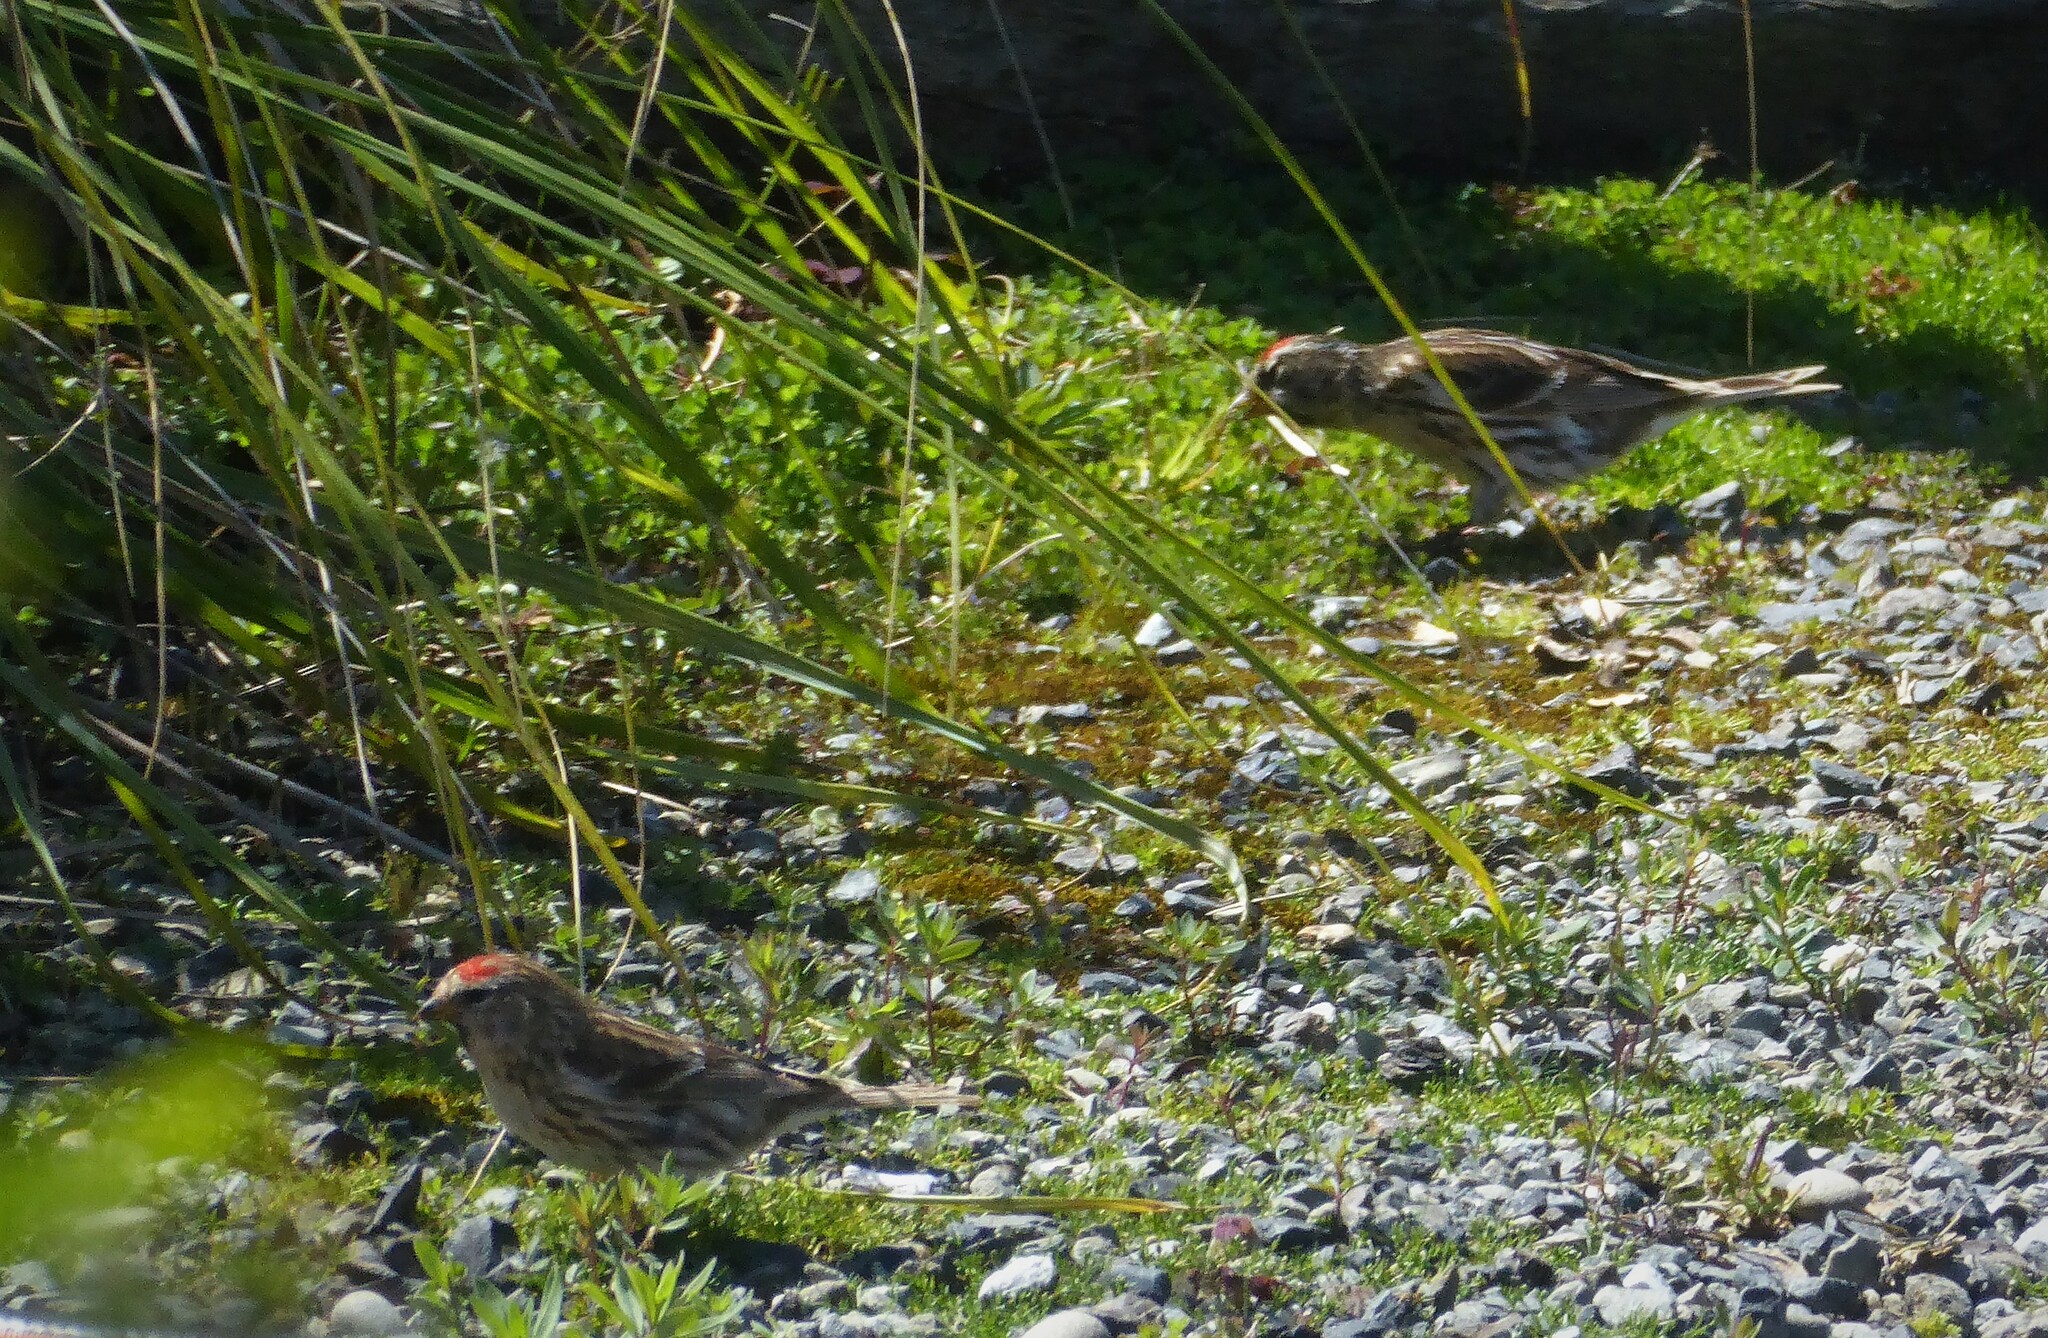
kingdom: Animalia
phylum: Chordata
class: Aves
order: Passeriformes
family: Fringillidae
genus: Acanthis
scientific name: Acanthis flammea
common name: Common redpoll
